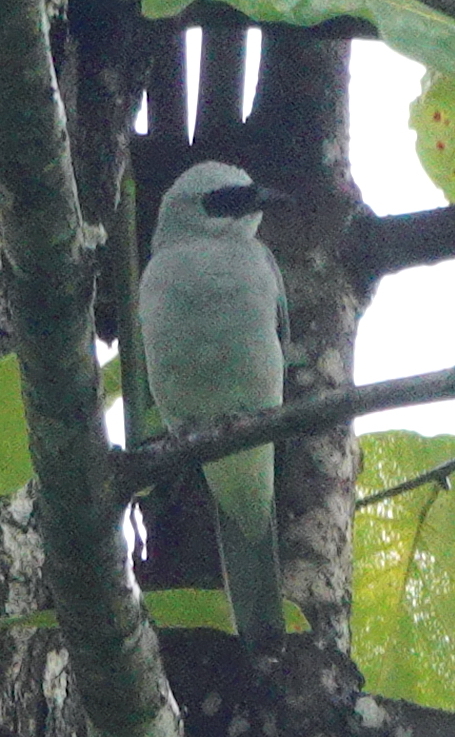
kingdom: Animalia
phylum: Chordata
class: Aves
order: Passeriformes
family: Campephagidae
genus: Coracina
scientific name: Coracina papuensis
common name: White-bellied cuckooshrike
